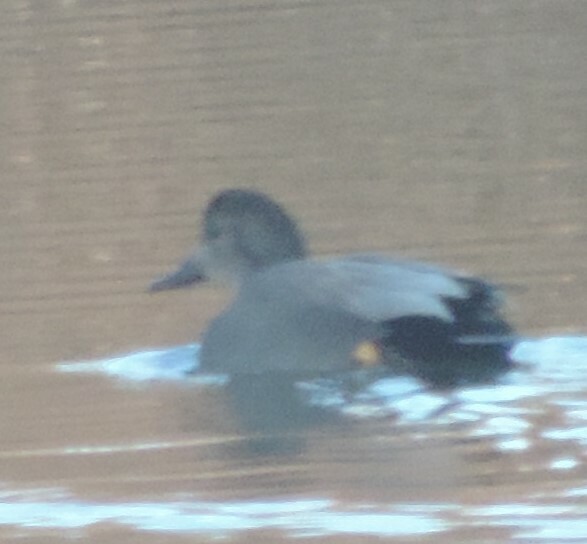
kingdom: Animalia
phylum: Chordata
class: Aves
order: Anseriformes
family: Anatidae
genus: Mareca
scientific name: Mareca strepera
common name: Gadwall
